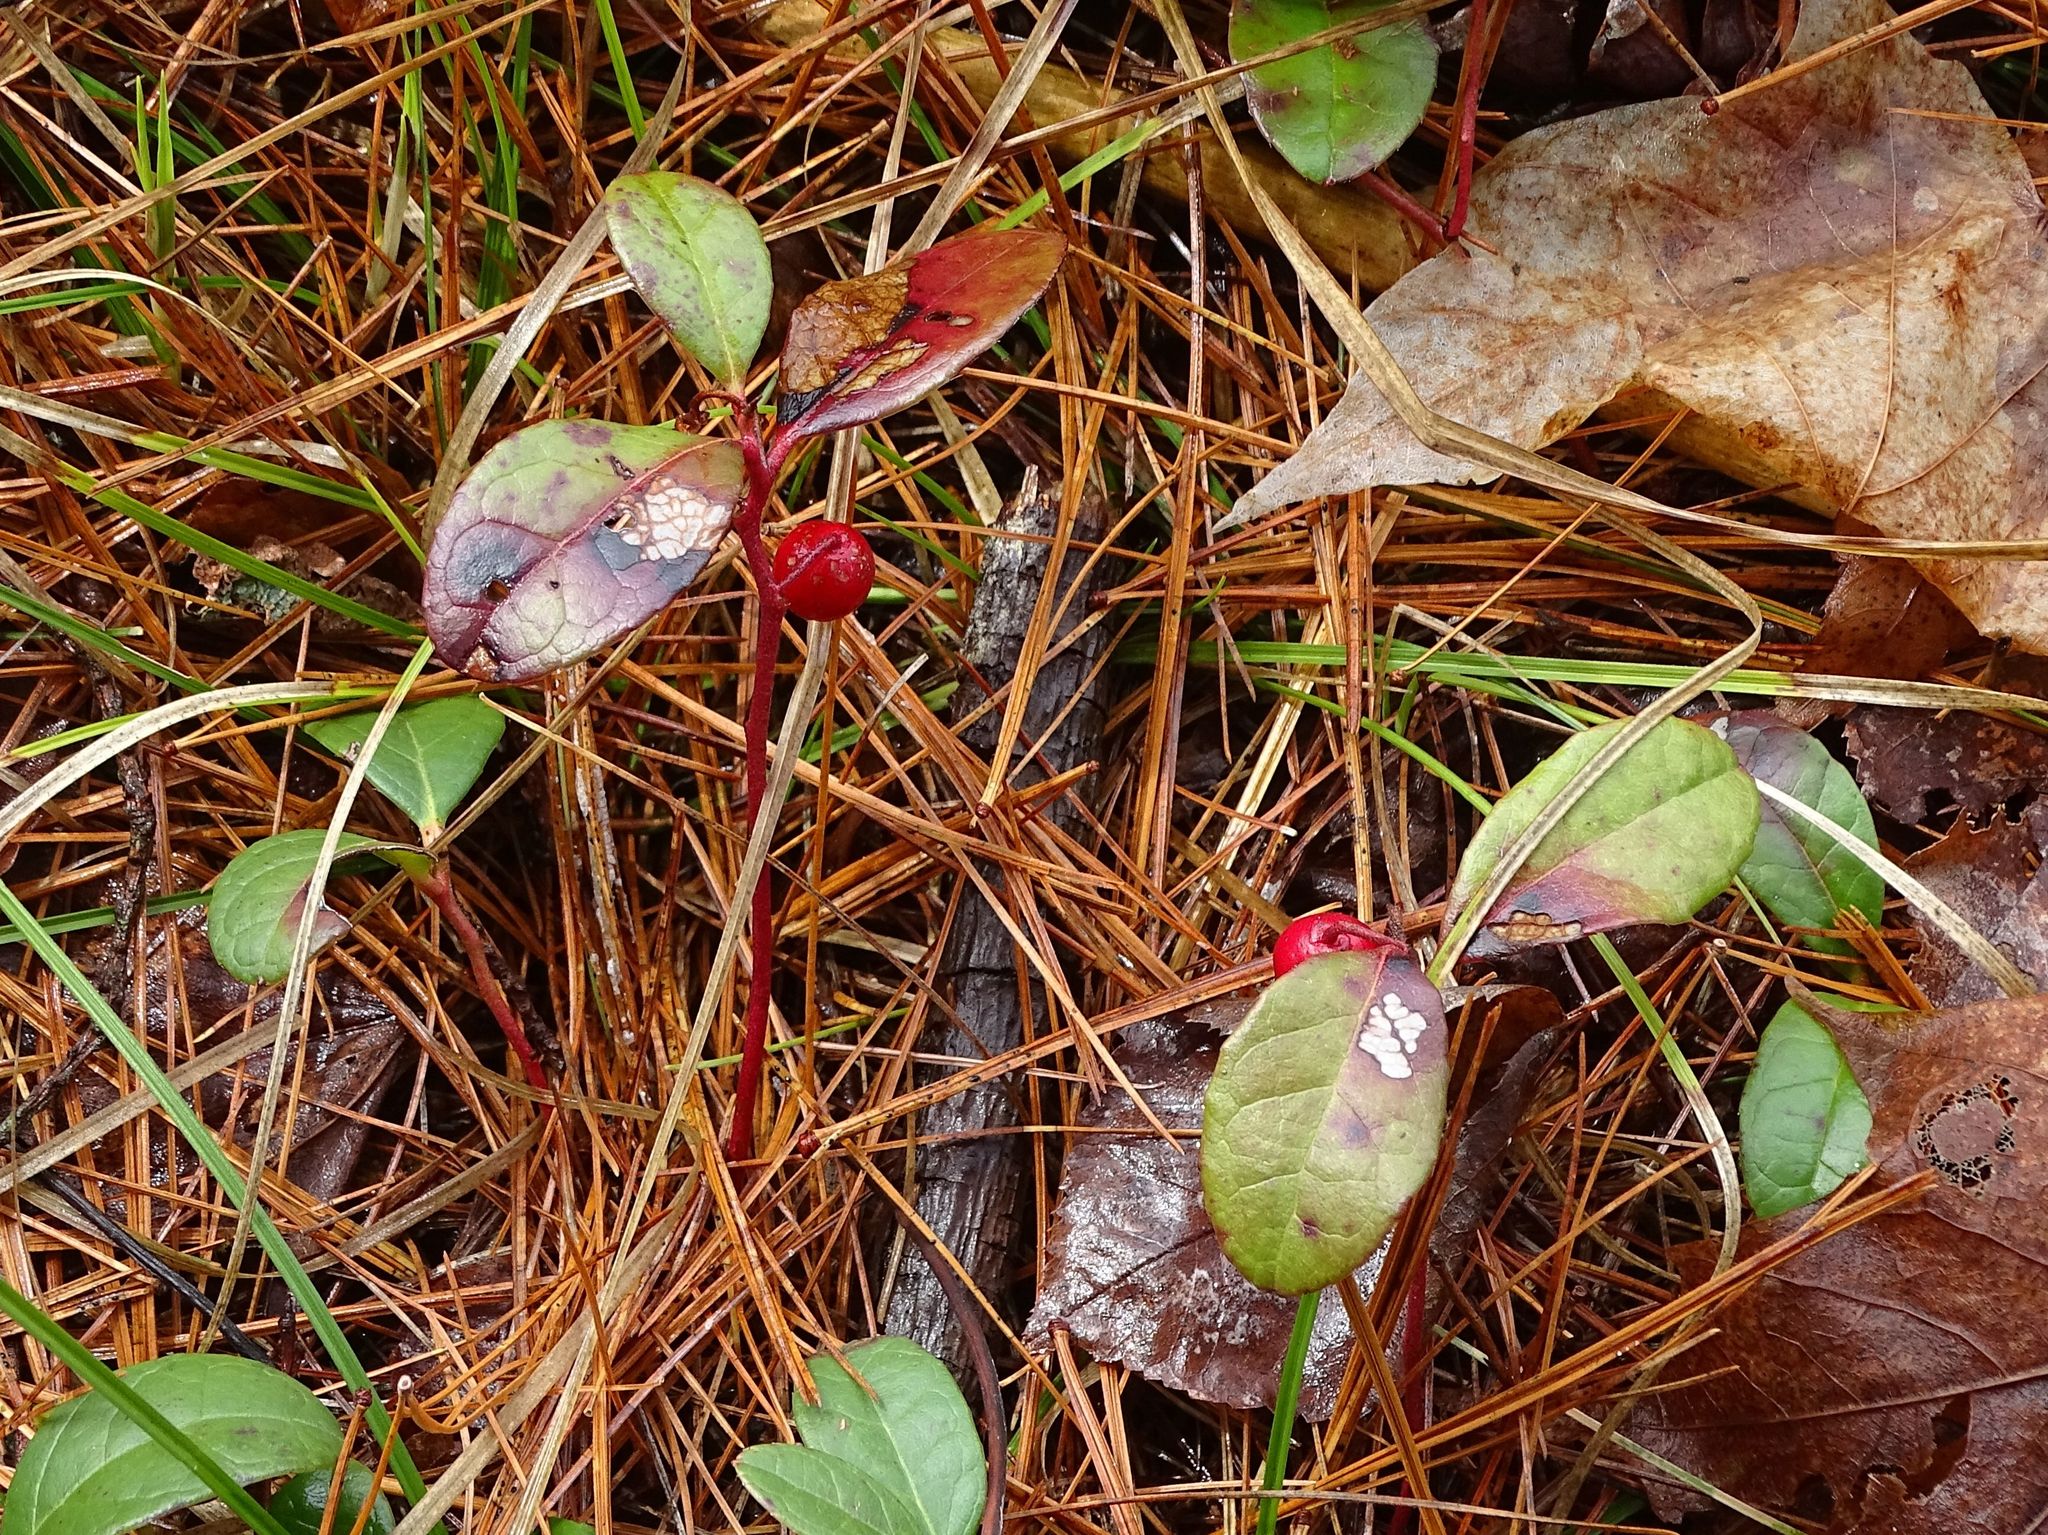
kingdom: Plantae
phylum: Tracheophyta
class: Magnoliopsida
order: Ericales
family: Ericaceae
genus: Gaultheria
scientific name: Gaultheria procumbens
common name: Checkerberry
